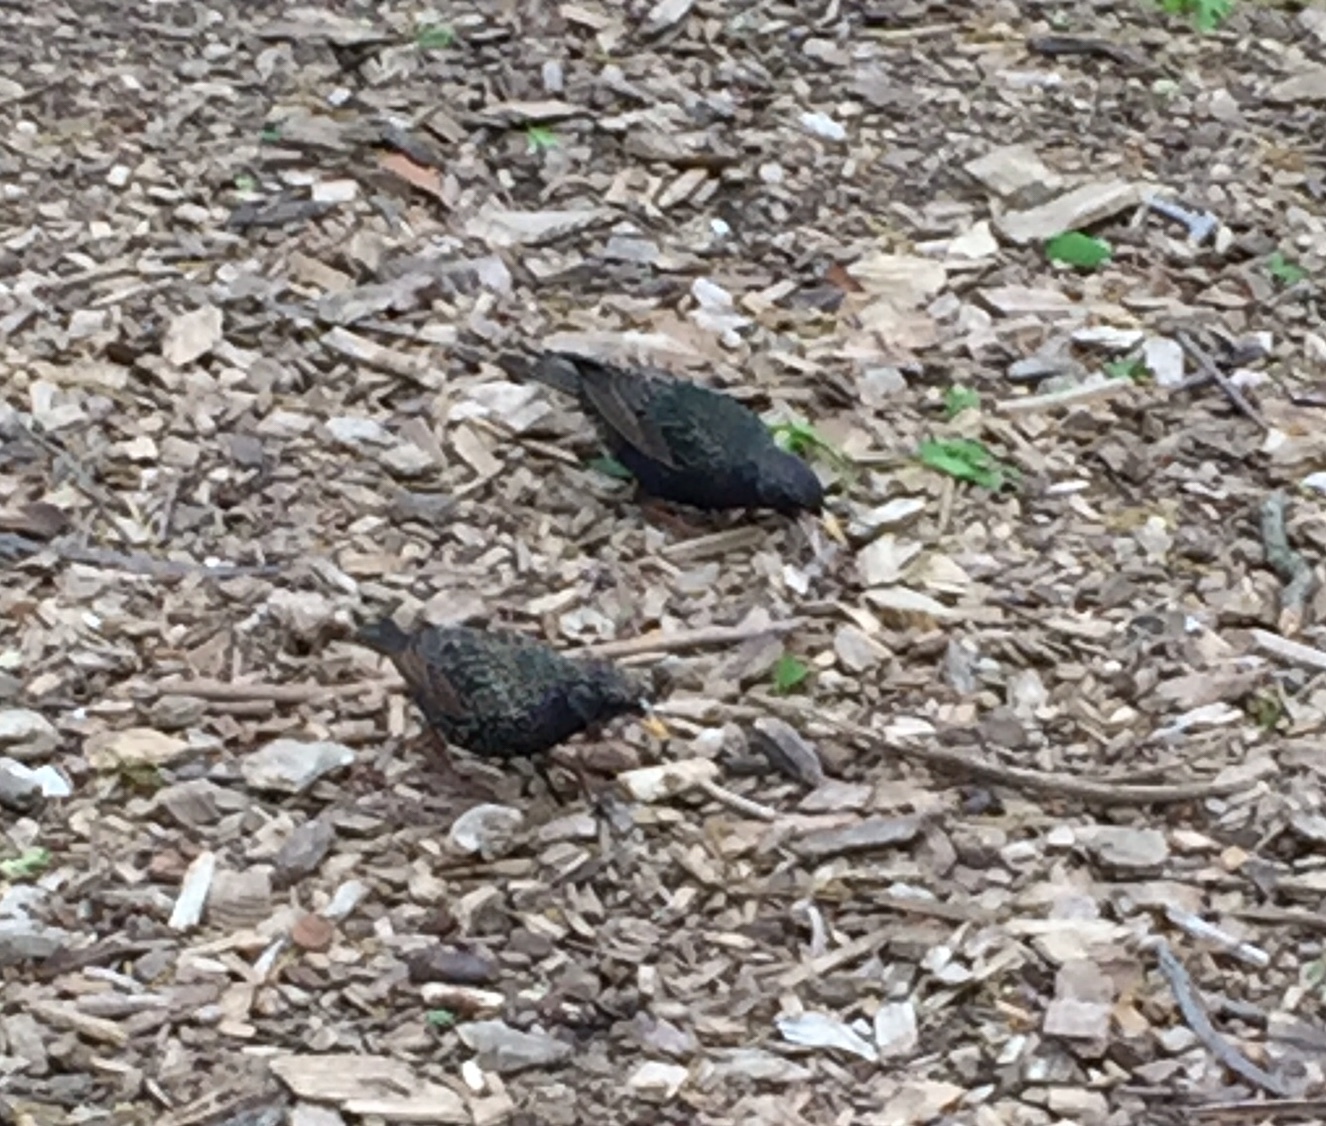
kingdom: Animalia
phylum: Chordata
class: Aves
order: Passeriformes
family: Sturnidae
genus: Sturnus
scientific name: Sturnus vulgaris
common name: Common starling
